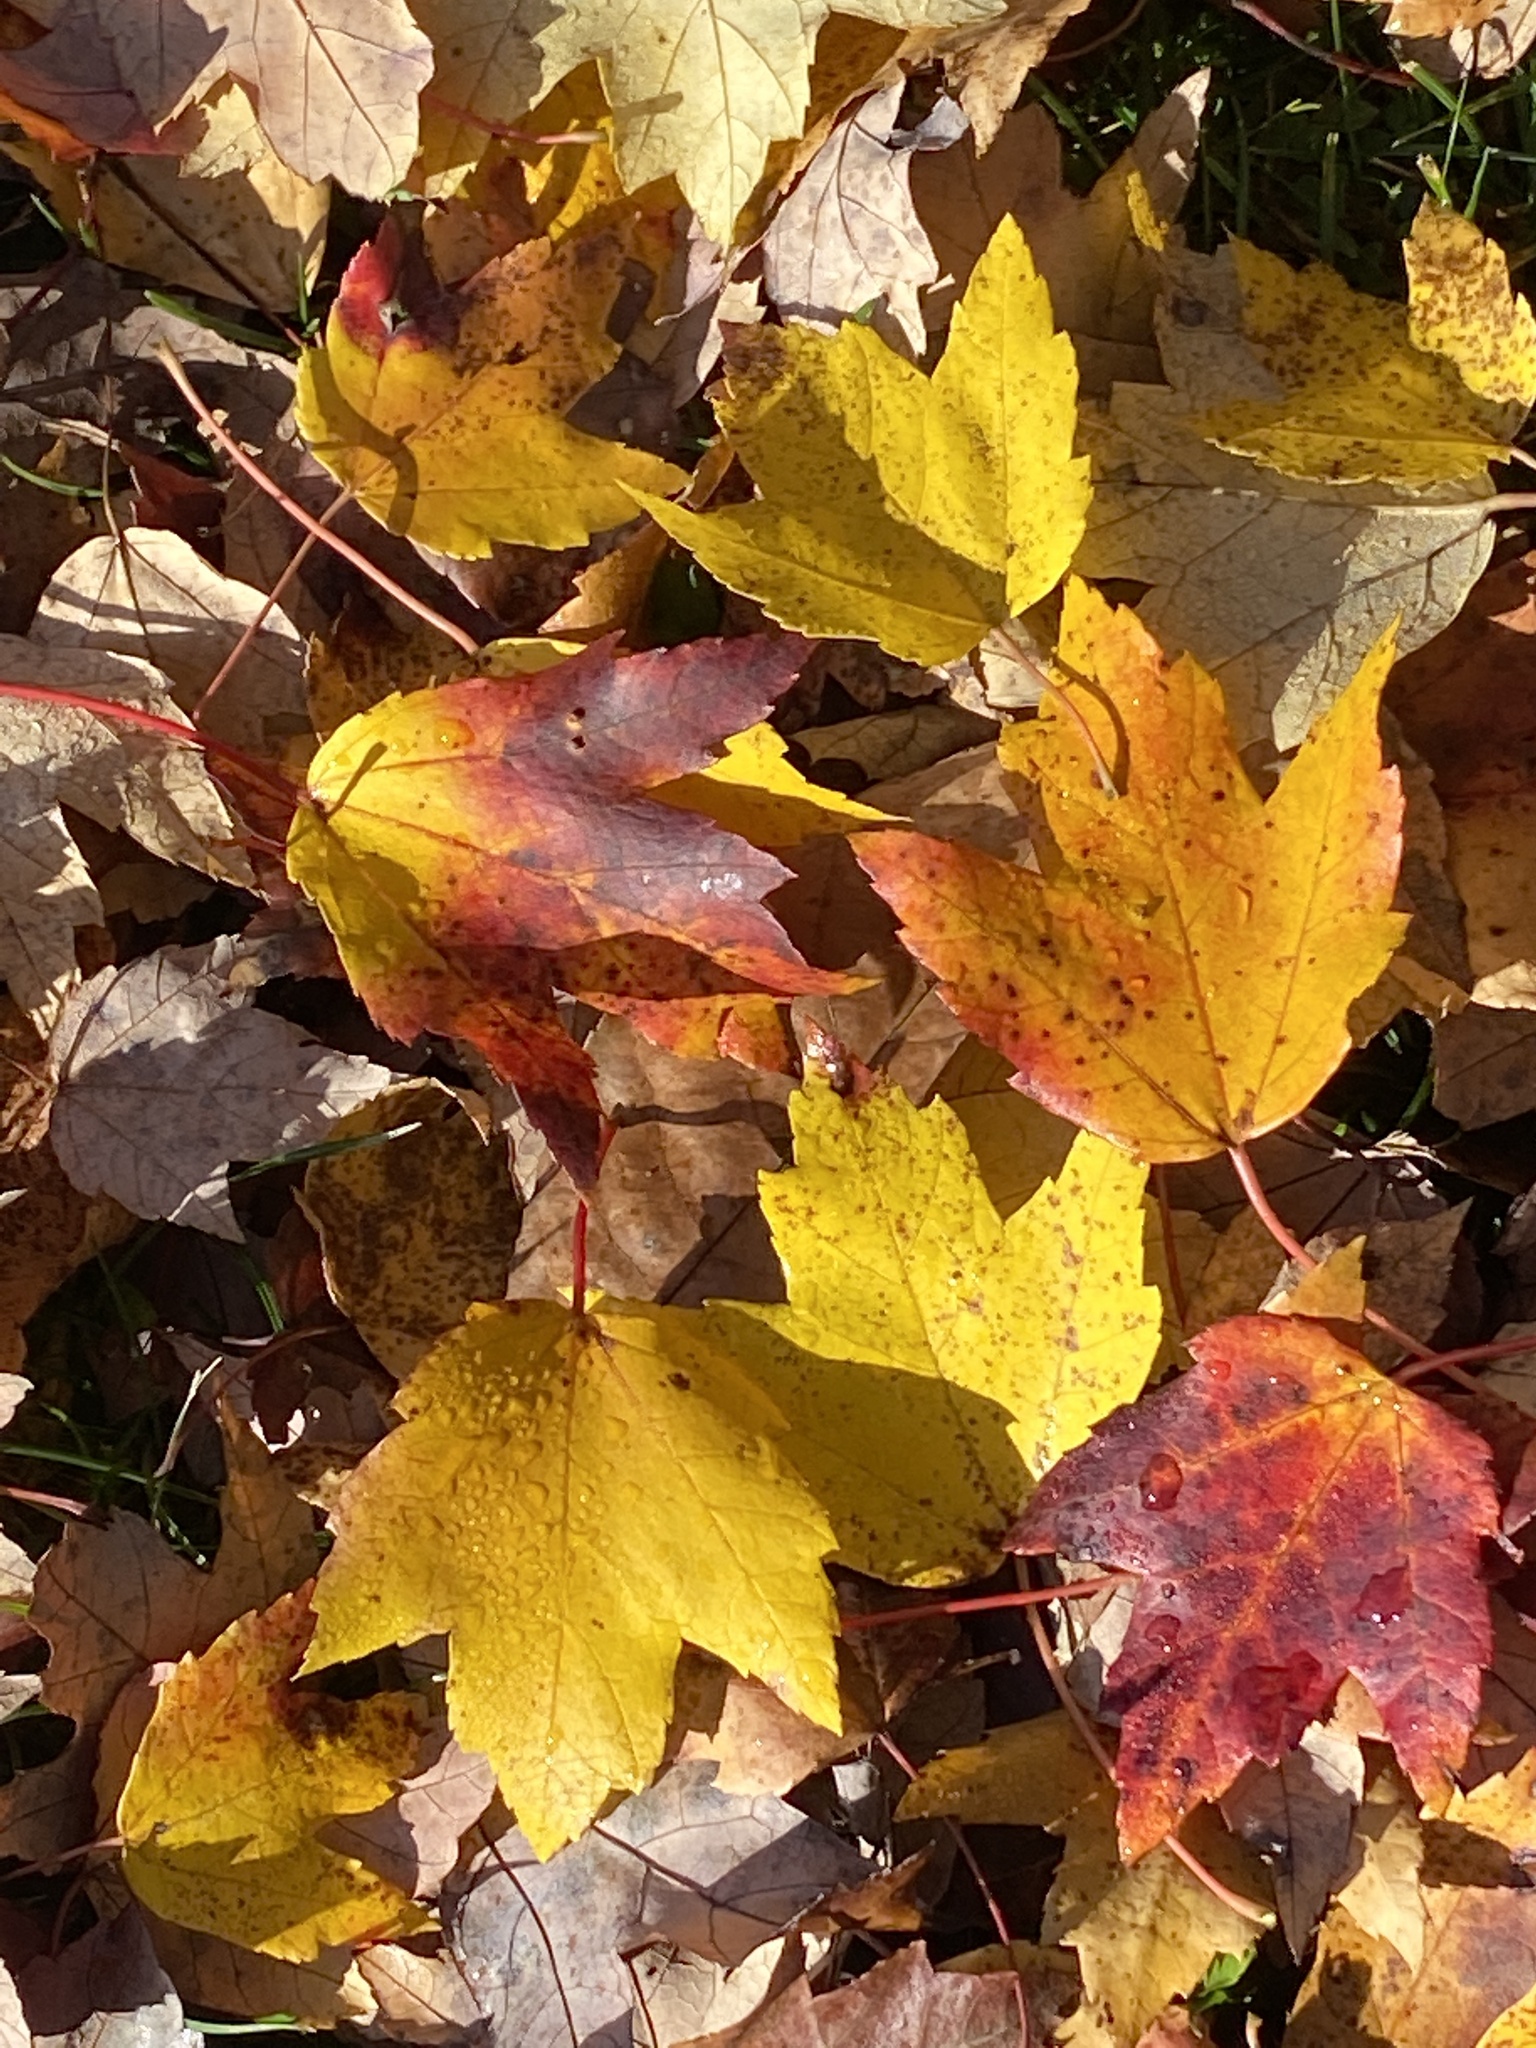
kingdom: Plantae
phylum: Tracheophyta
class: Magnoliopsida
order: Sapindales
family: Sapindaceae
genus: Acer
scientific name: Acer rubrum
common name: Red maple
